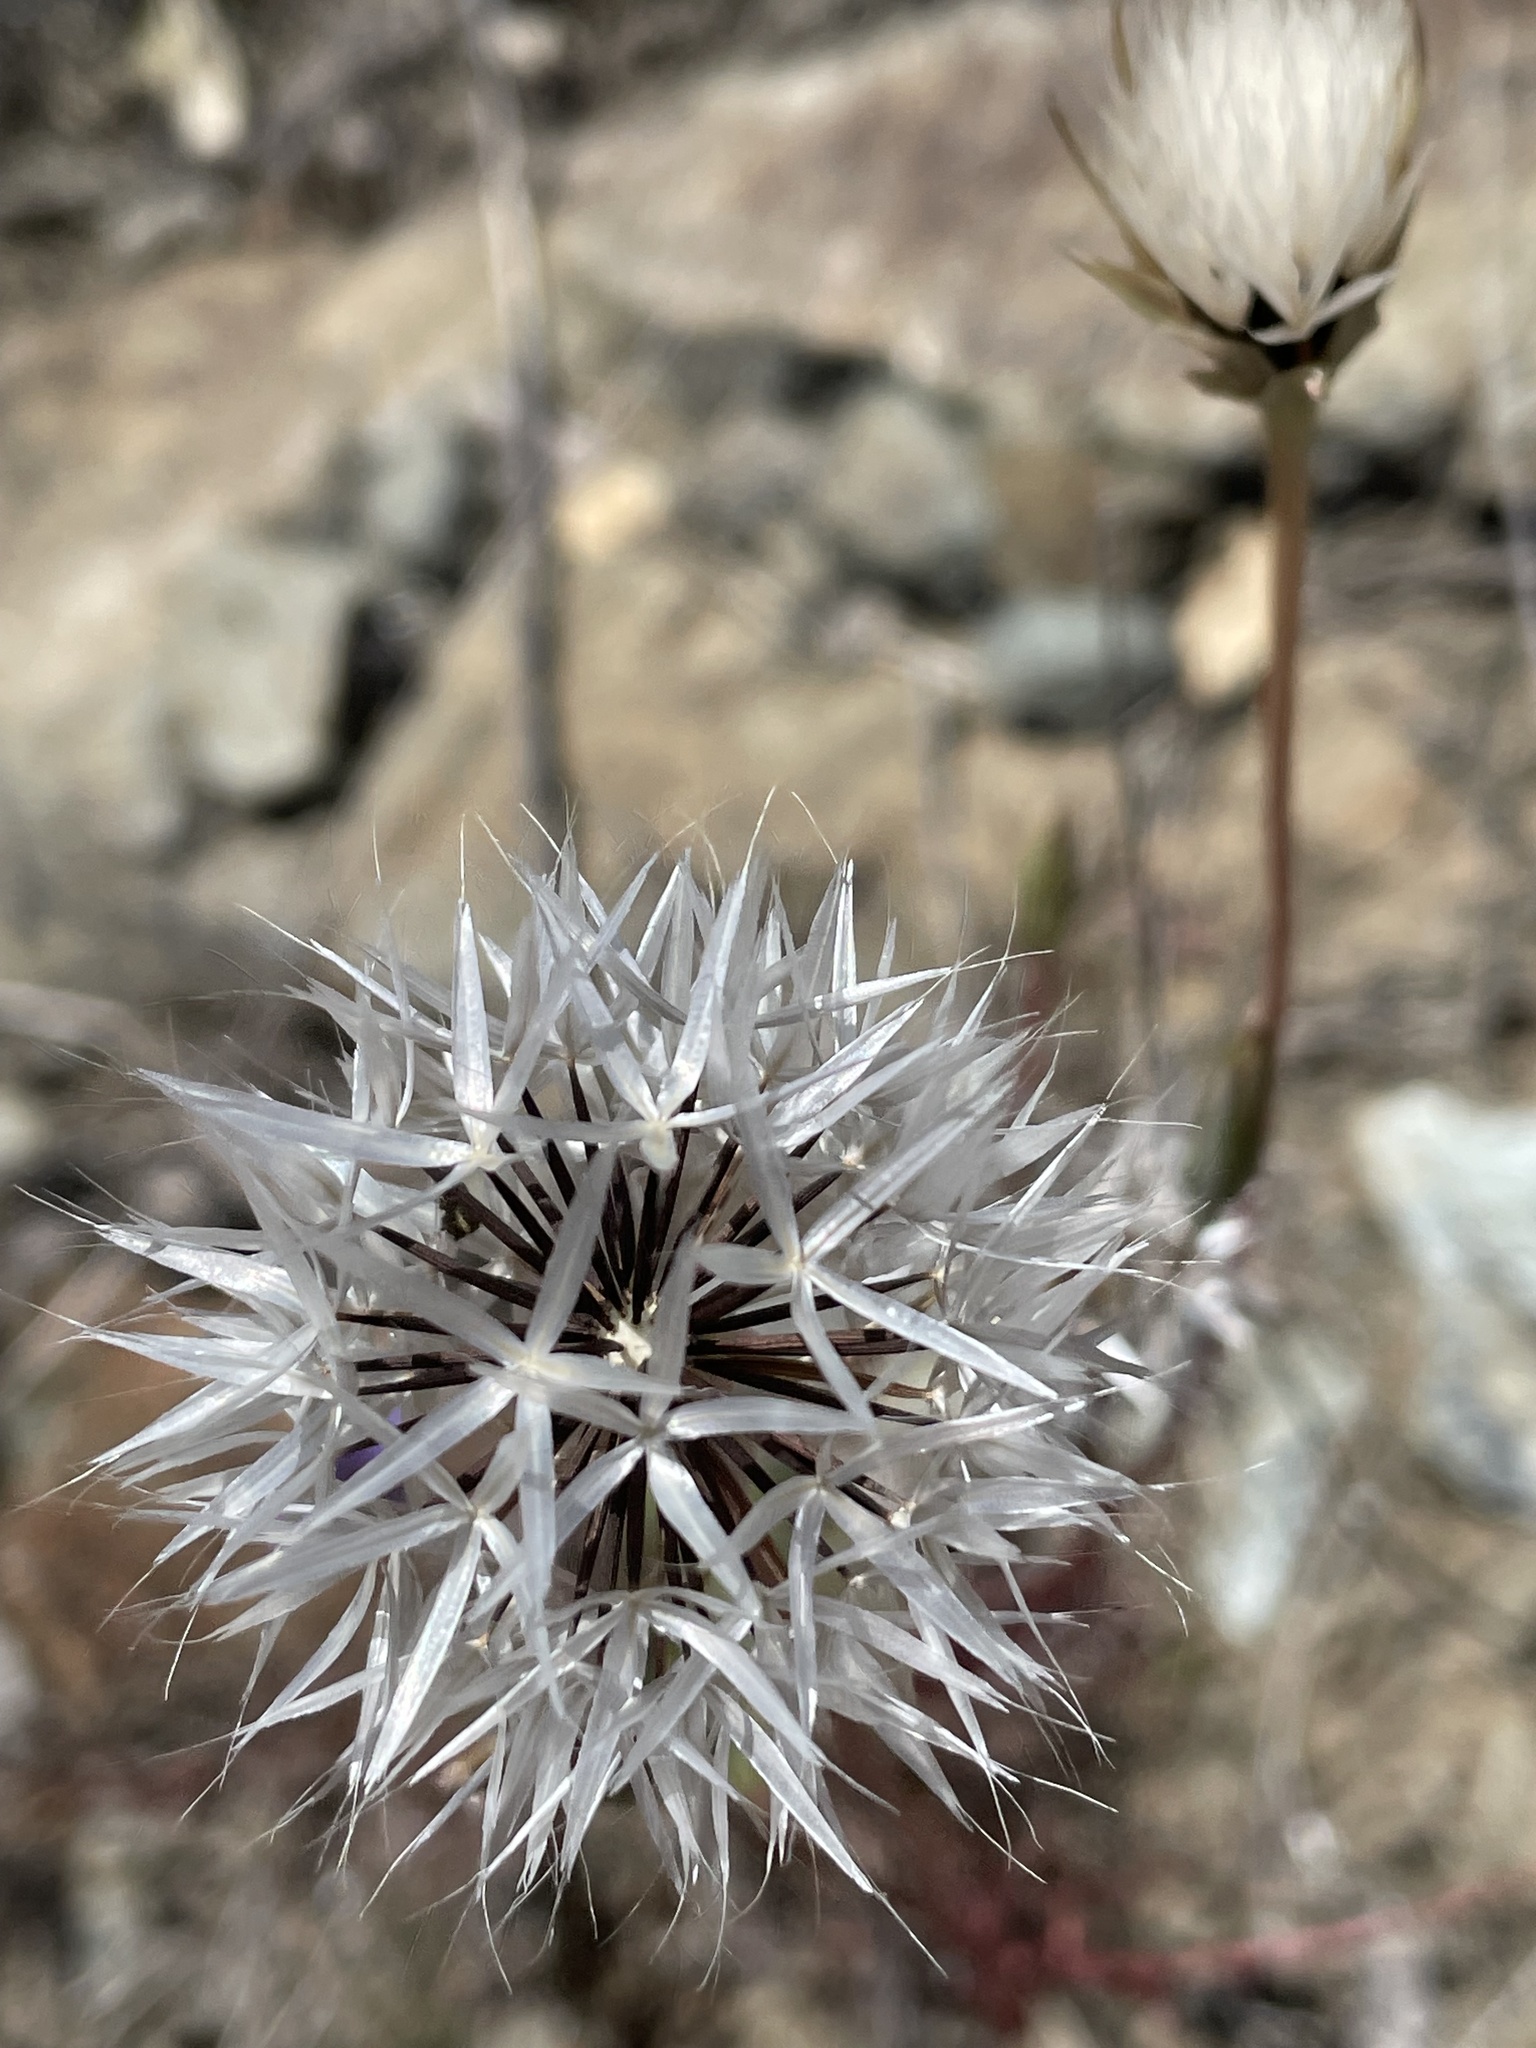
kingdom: Plantae
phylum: Tracheophyta
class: Magnoliopsida
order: Asterales
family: Asteraceae
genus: Microseris
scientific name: Microseris lindleyi
